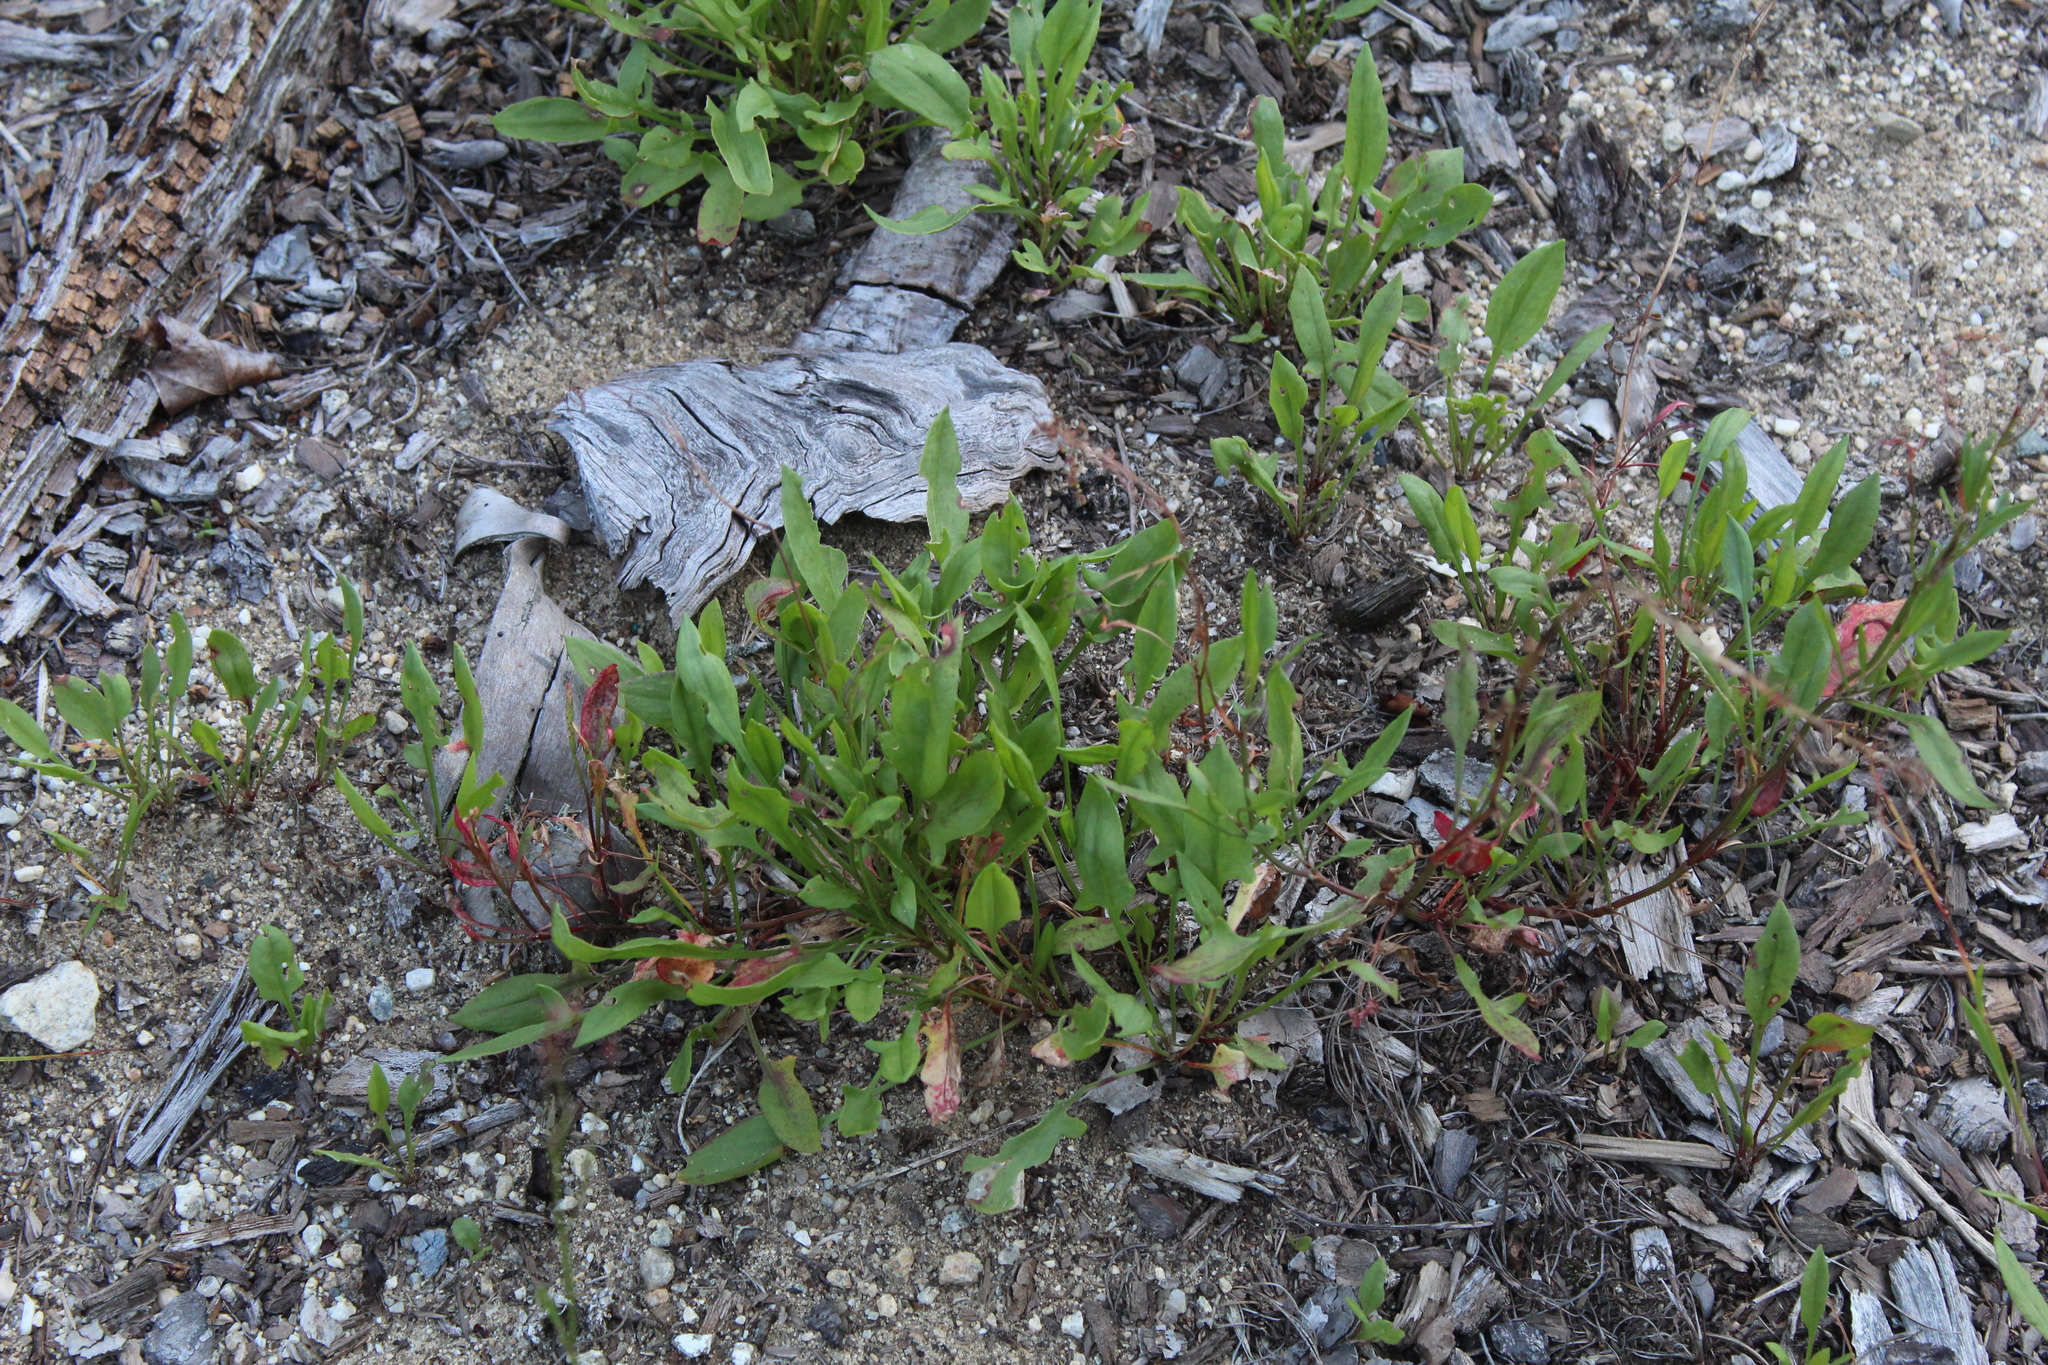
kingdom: Plantae
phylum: Tracheophyta
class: Magnoliopsida
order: Caryophyllales
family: Polygonaceae
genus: Rumex
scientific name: Rumex acetosella
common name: Common sheep sorrel
